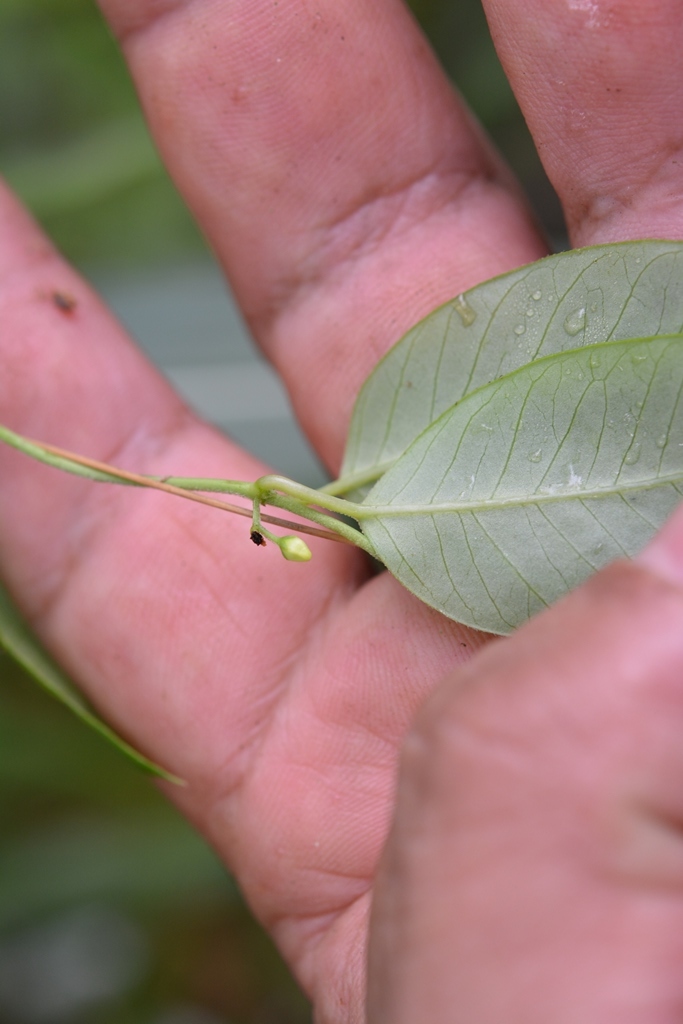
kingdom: Plantae
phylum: Tracheophyta
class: Magnoliopsida
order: Gentianales
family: Apocynaceae
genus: Metastelma
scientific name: Metastelma schlechtendalii
